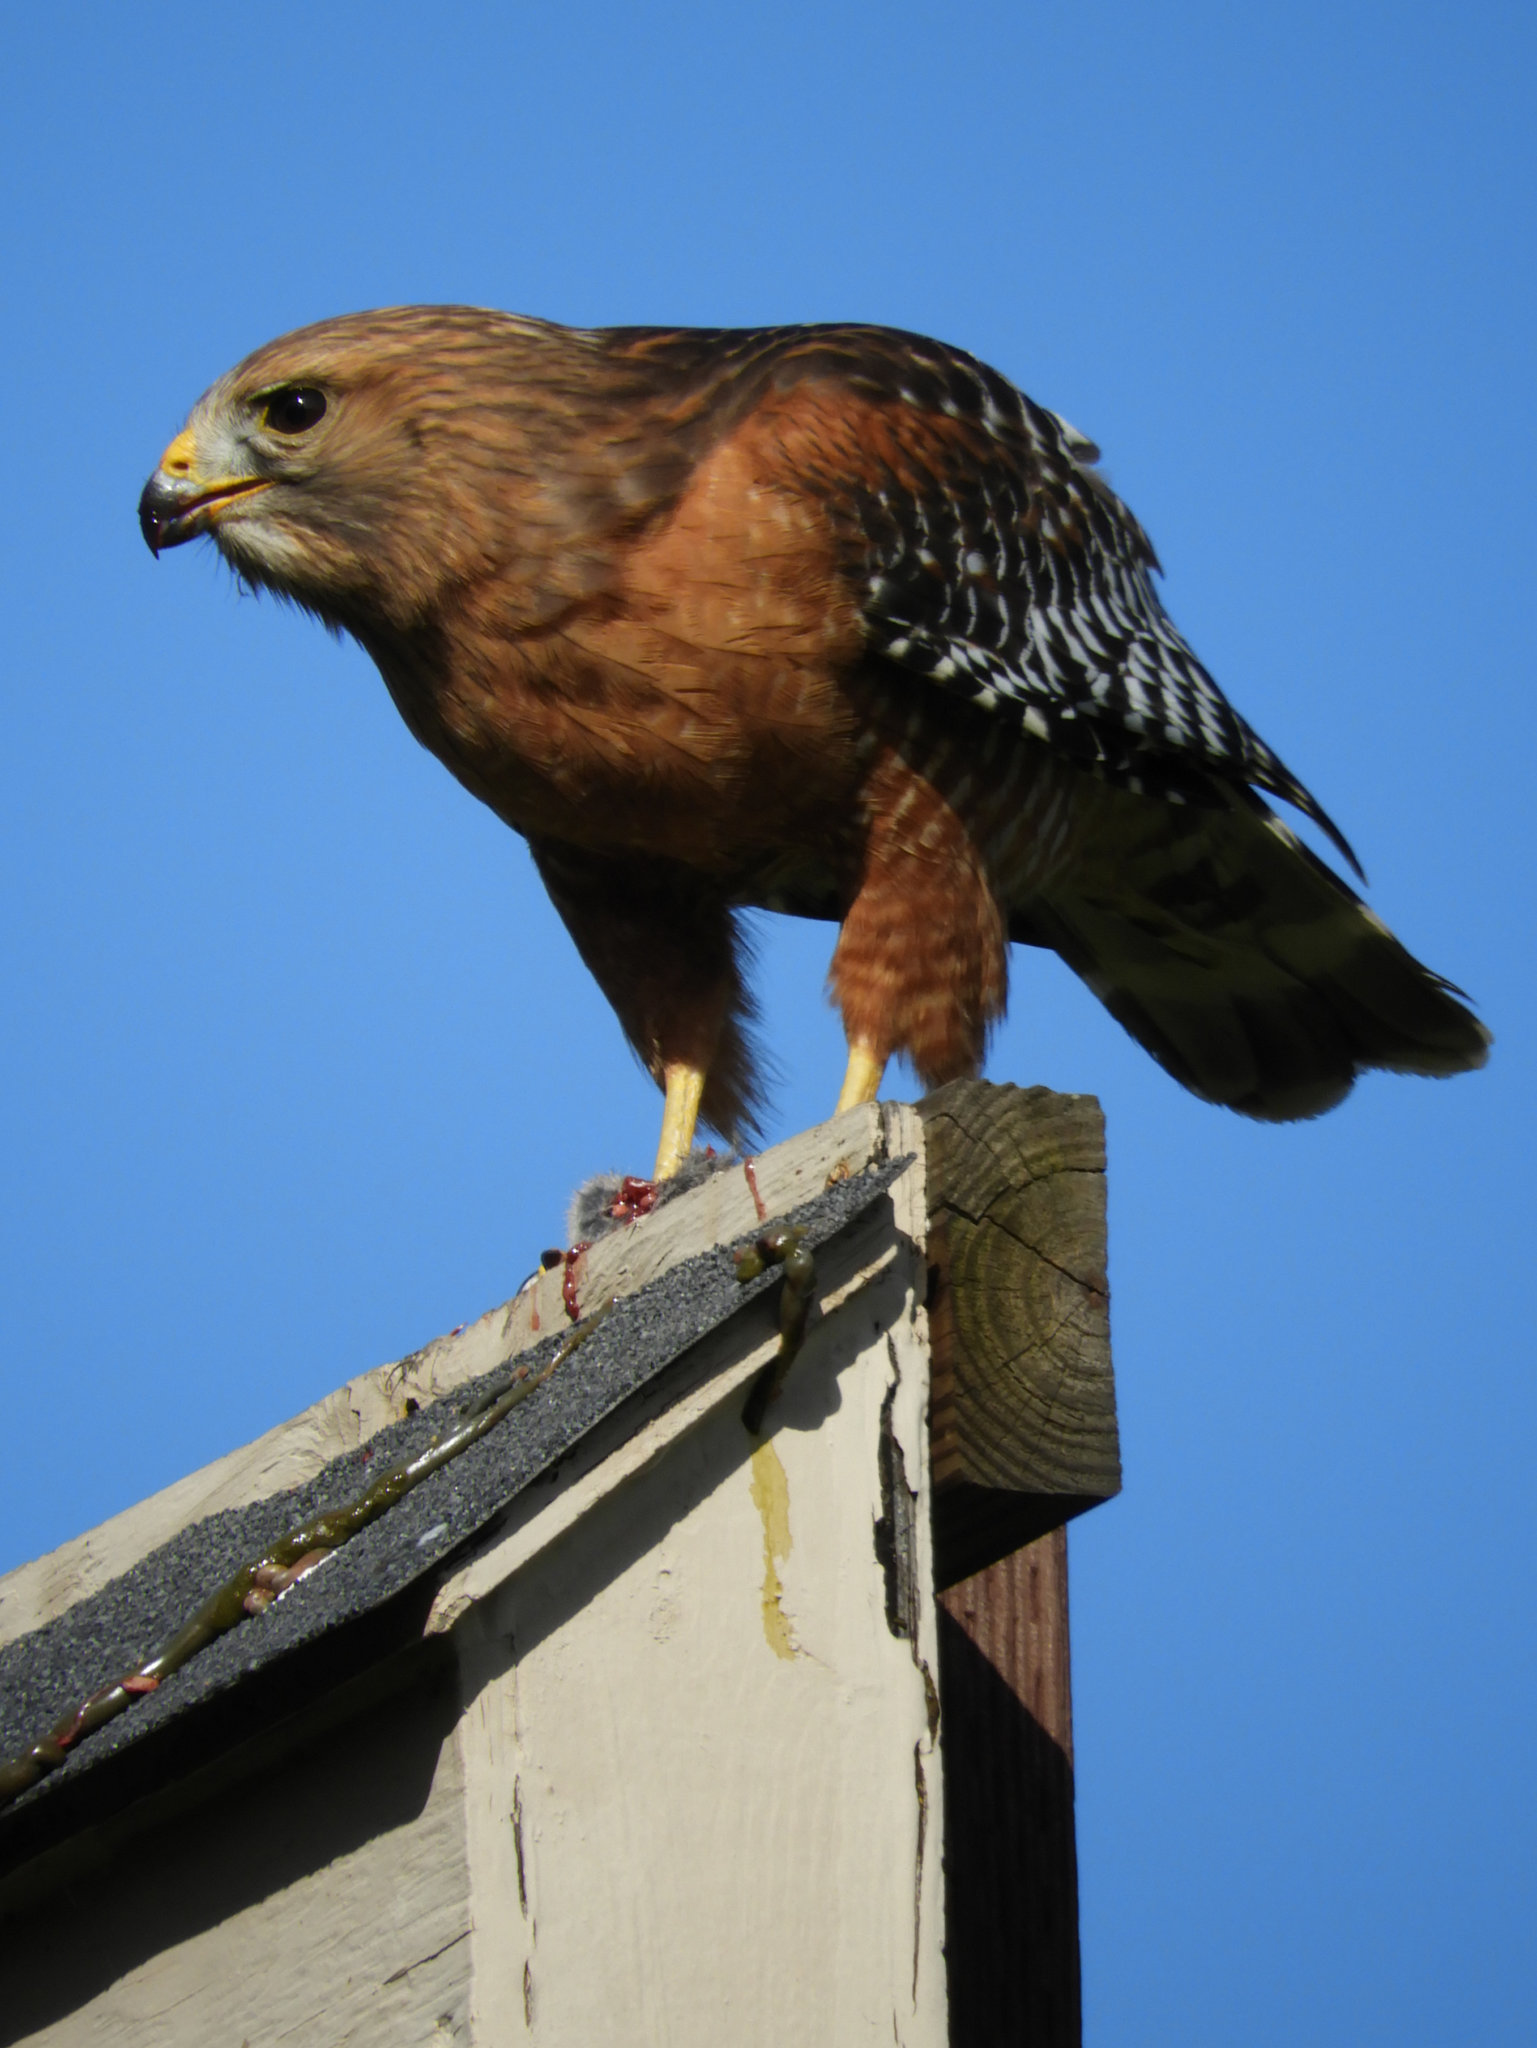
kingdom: Animalia
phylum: Chordata
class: Aves
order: Accipitriformes
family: Accipitridae
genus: Buteo
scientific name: Buteo lineatus
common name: Red-shouldered hawk
